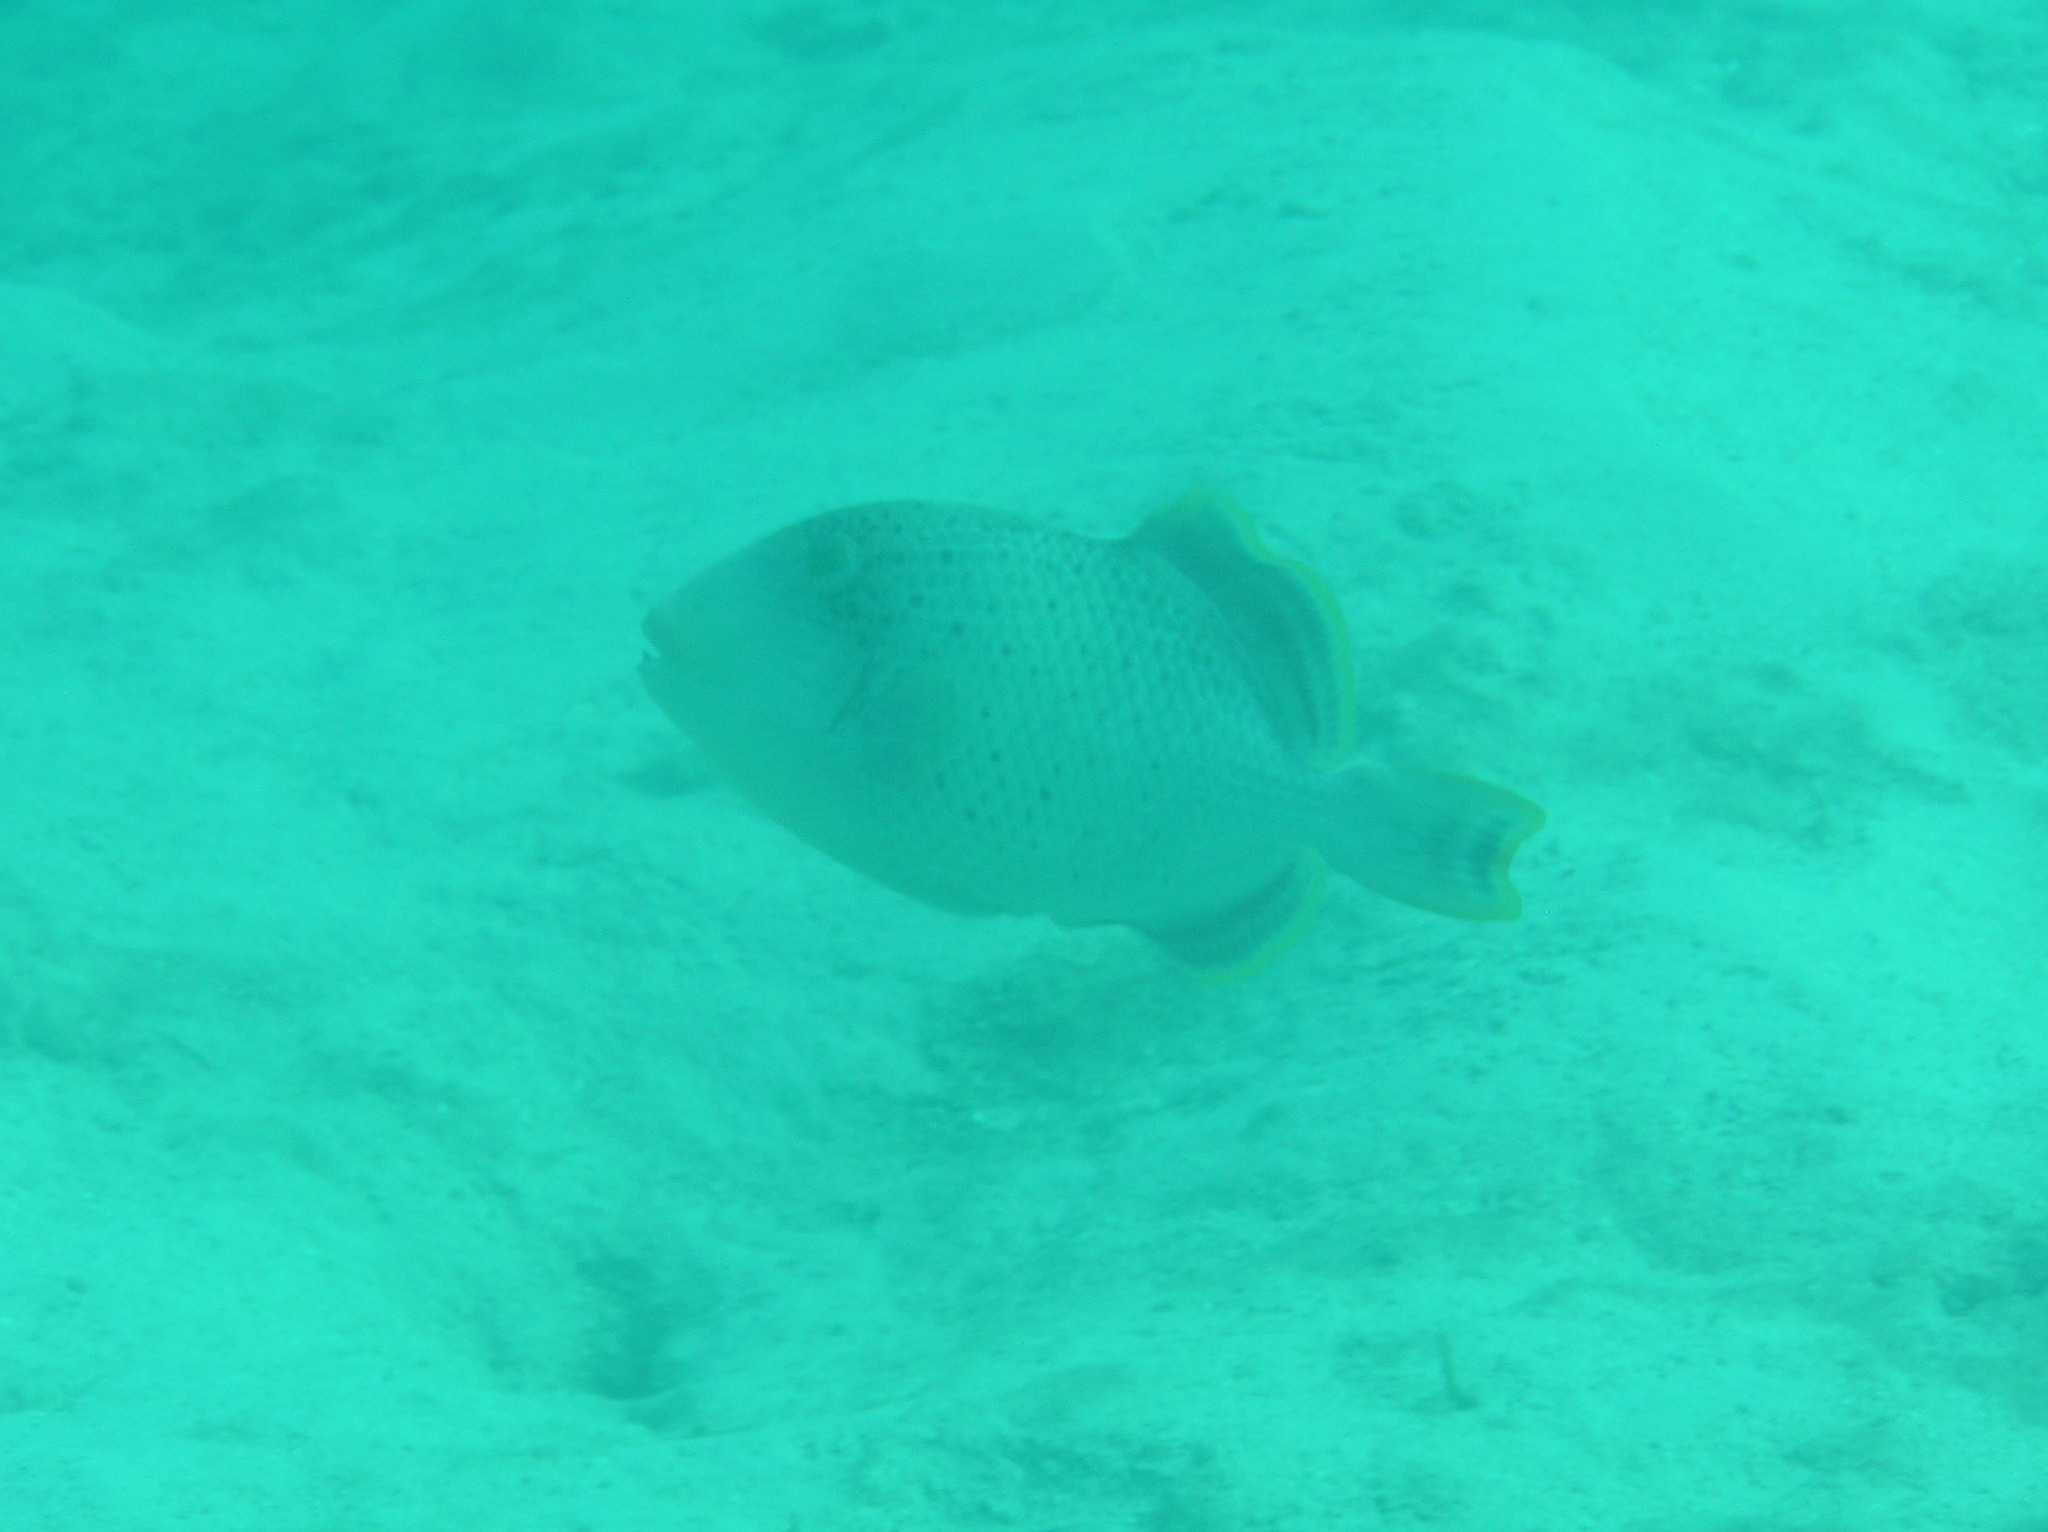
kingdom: Animalia
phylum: Chordata
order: Tetraodontiformes
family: Balistidae
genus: Pseudobalistes
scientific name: Pseudobalistes flavimarginatus
